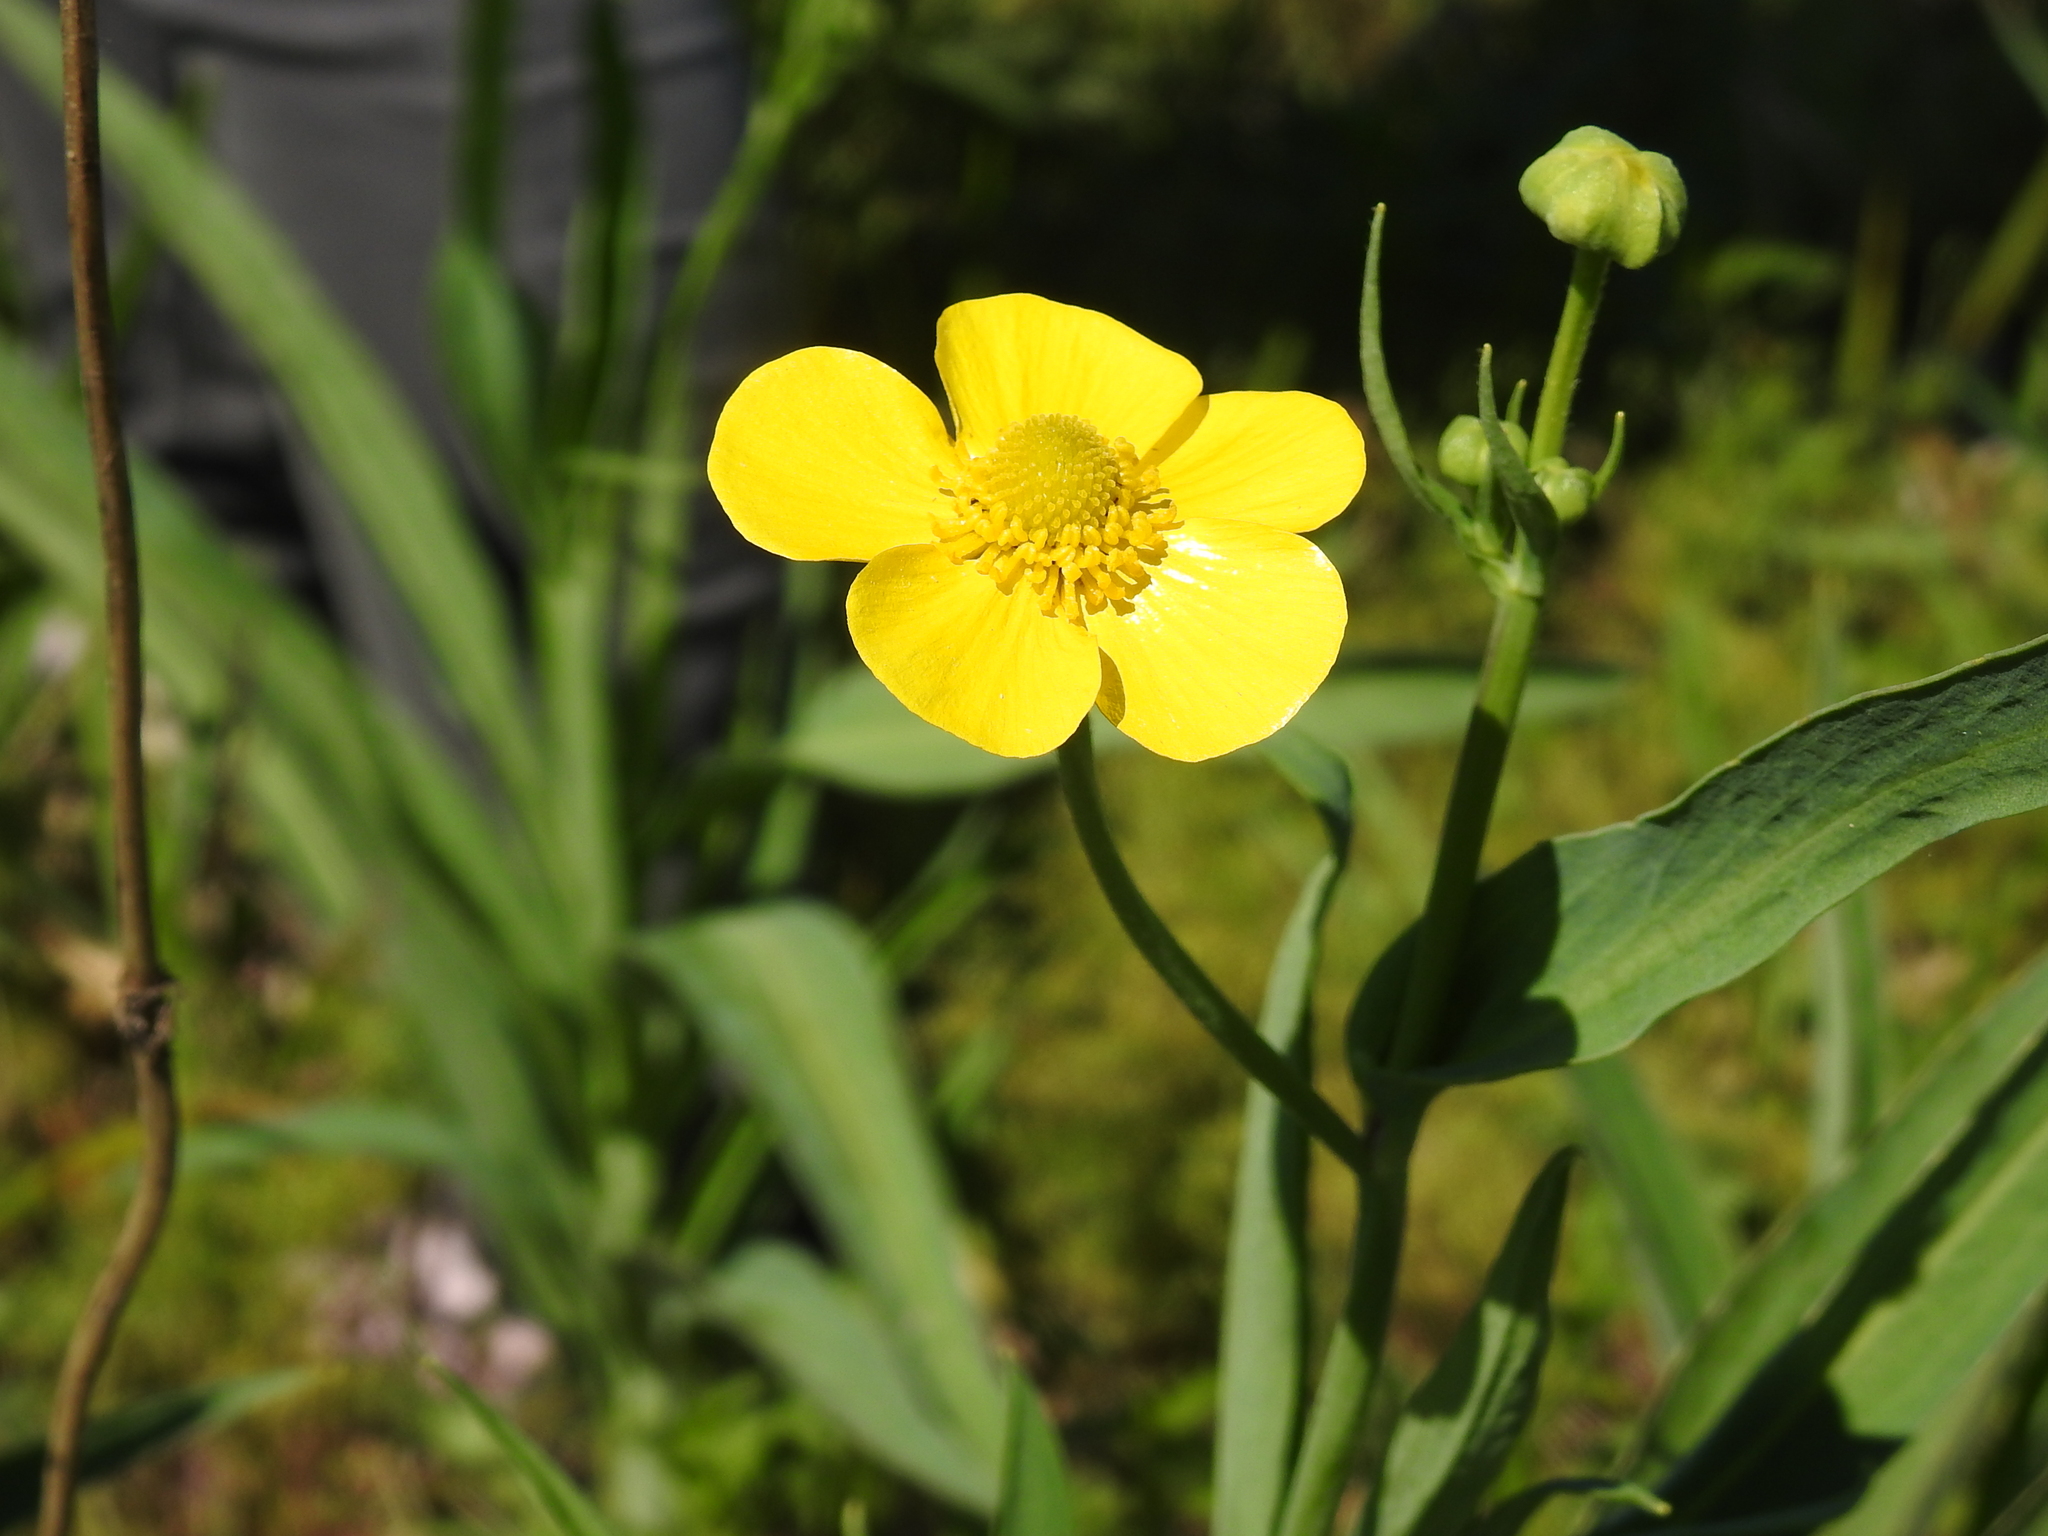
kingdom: Plantae
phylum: Tracheophyta
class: Magnoliopsida
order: Ranunculales
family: Ranunculaceae
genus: Ranunculus
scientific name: Ranunculus lingua
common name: Greater spearwort
